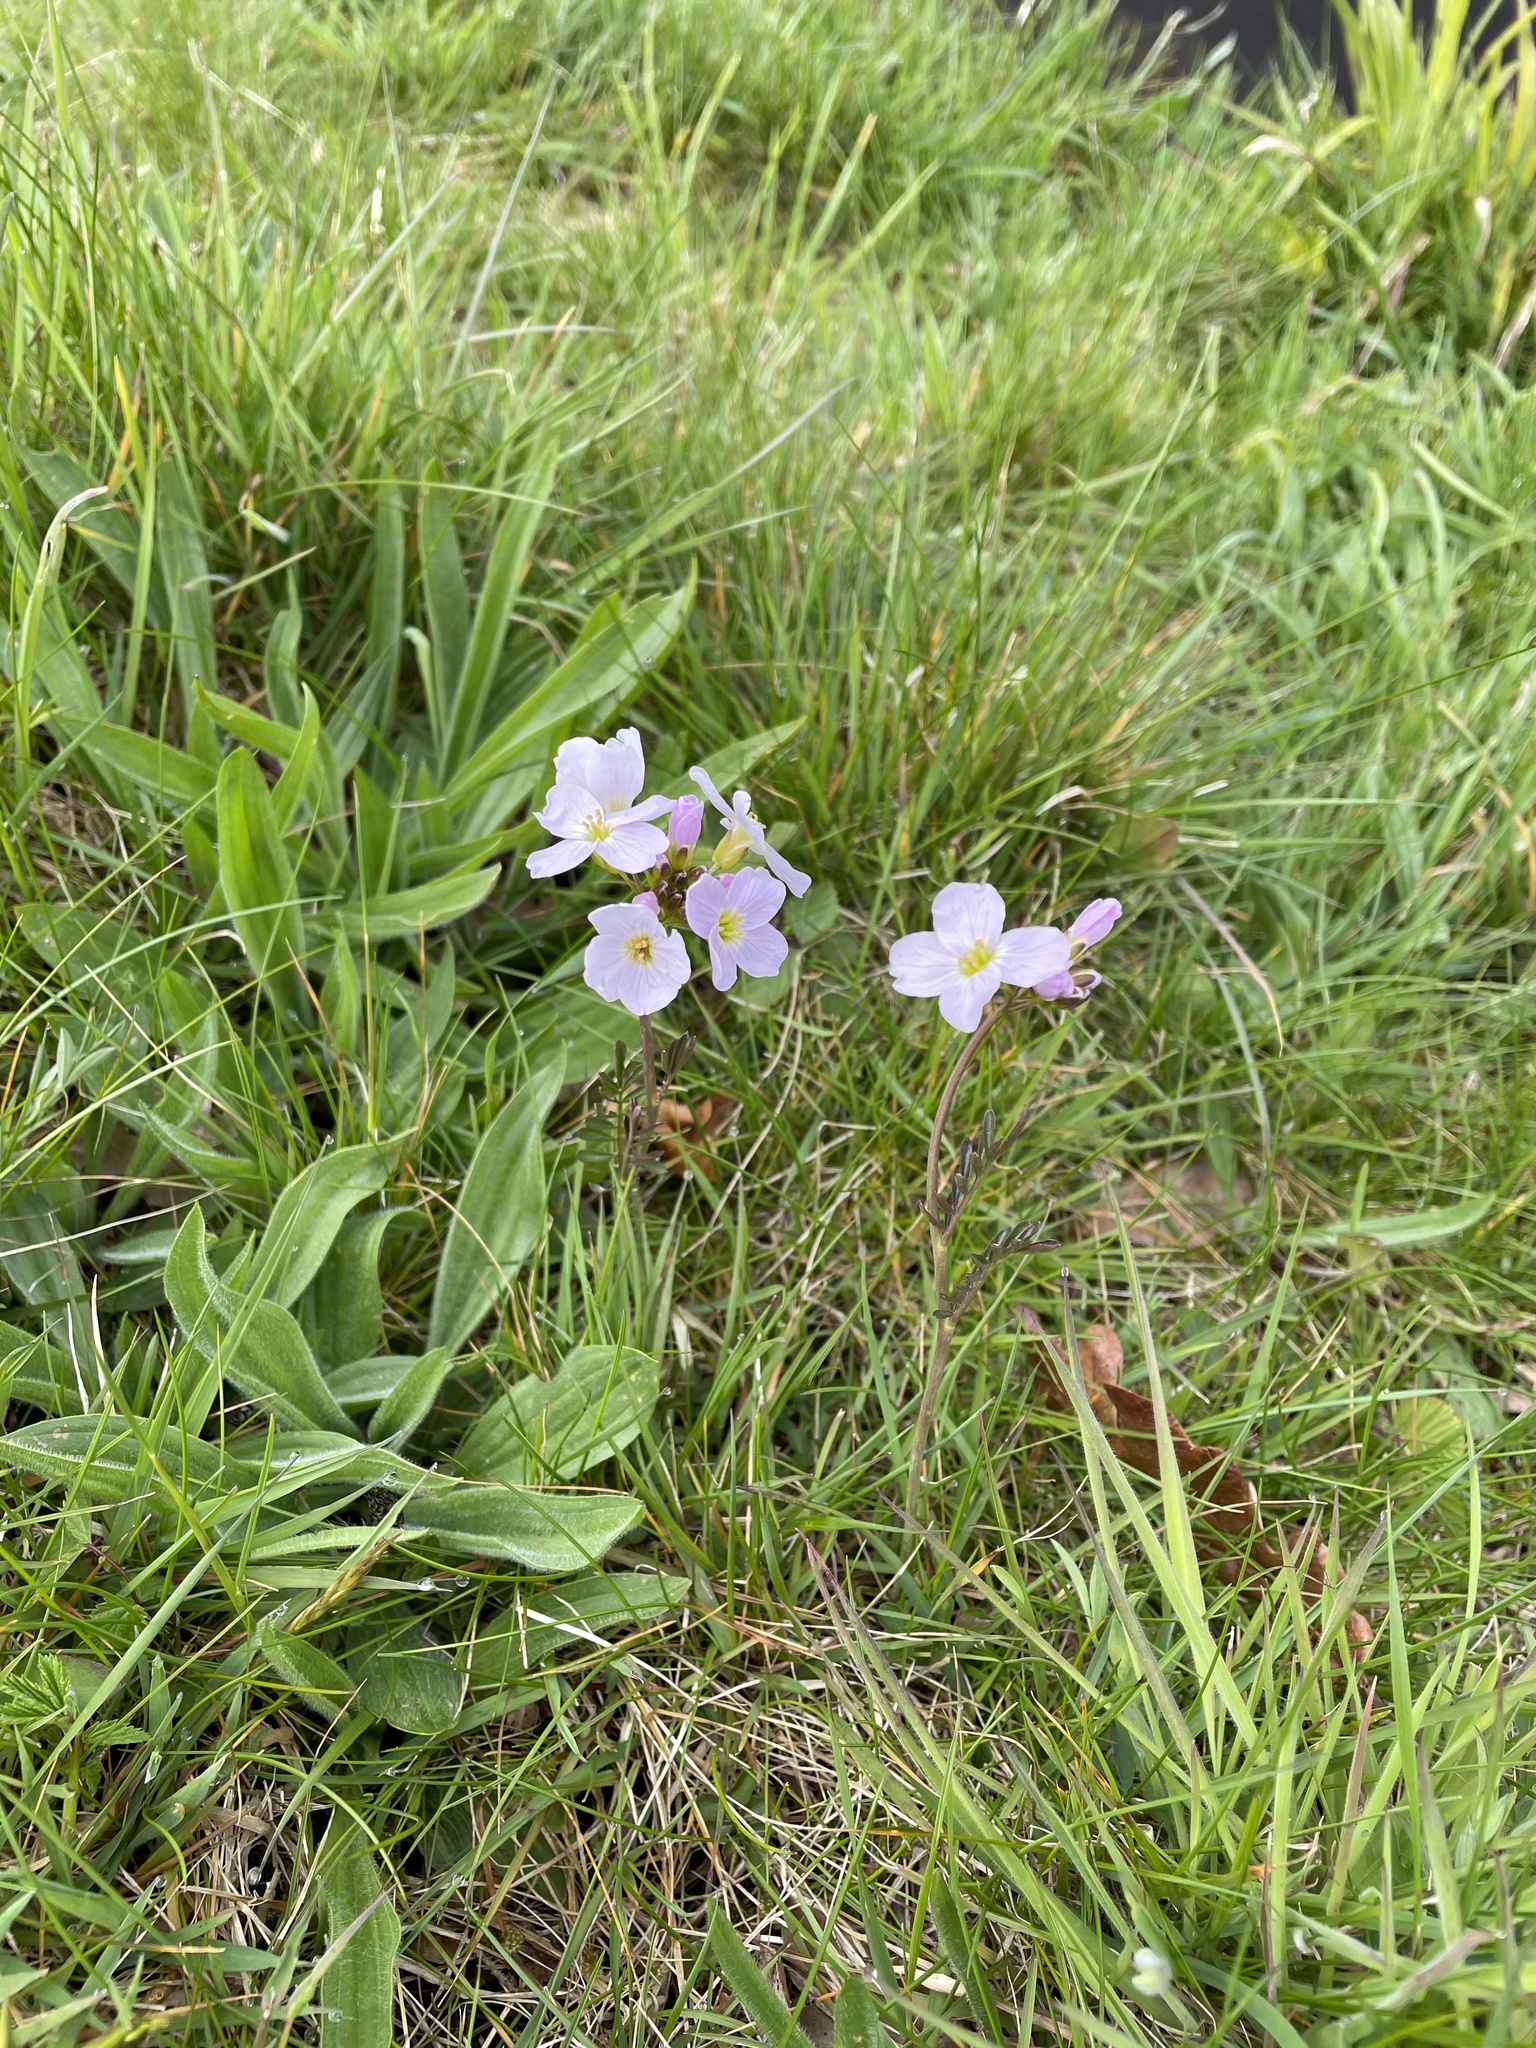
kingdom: Plantae
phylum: Tracheophyta
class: Magnoliopsida
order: Brassicales
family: Brassicaceae
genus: Cardamine
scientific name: Cardamine pratensis
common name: Cuckoo flower
